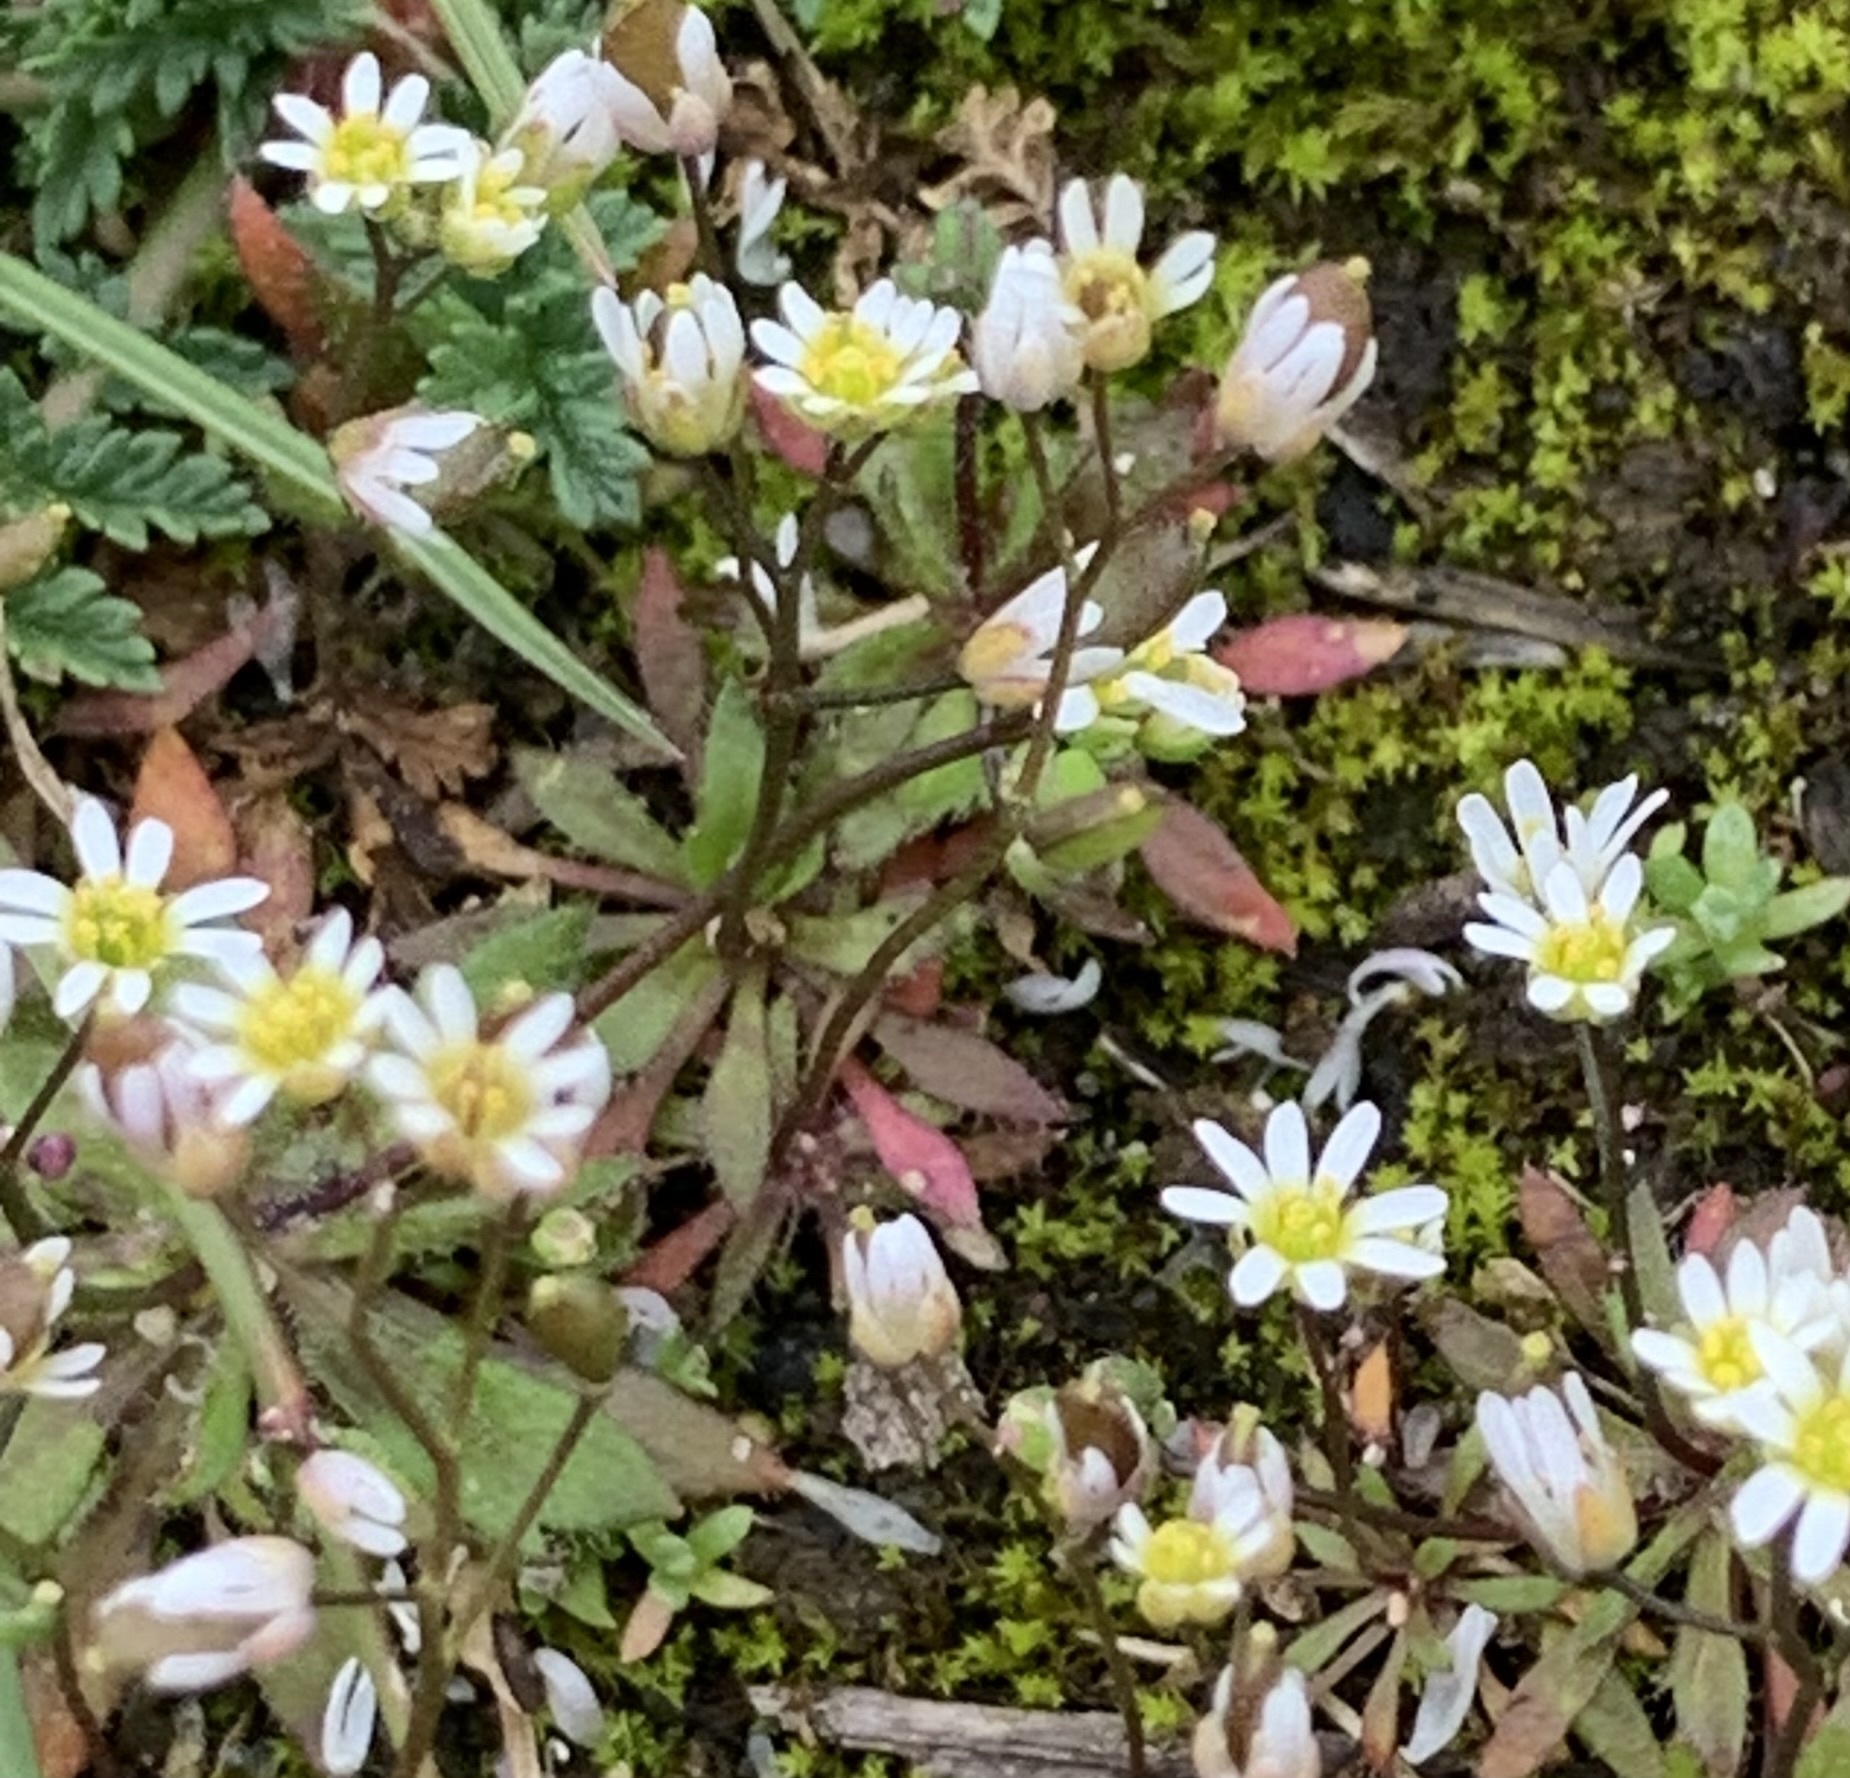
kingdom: Plantae
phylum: Tracheophyta
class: Magnoliopsida
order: Brassicales
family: Brassicaceae
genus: Draba
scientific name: Draba verna
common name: Spring draba
